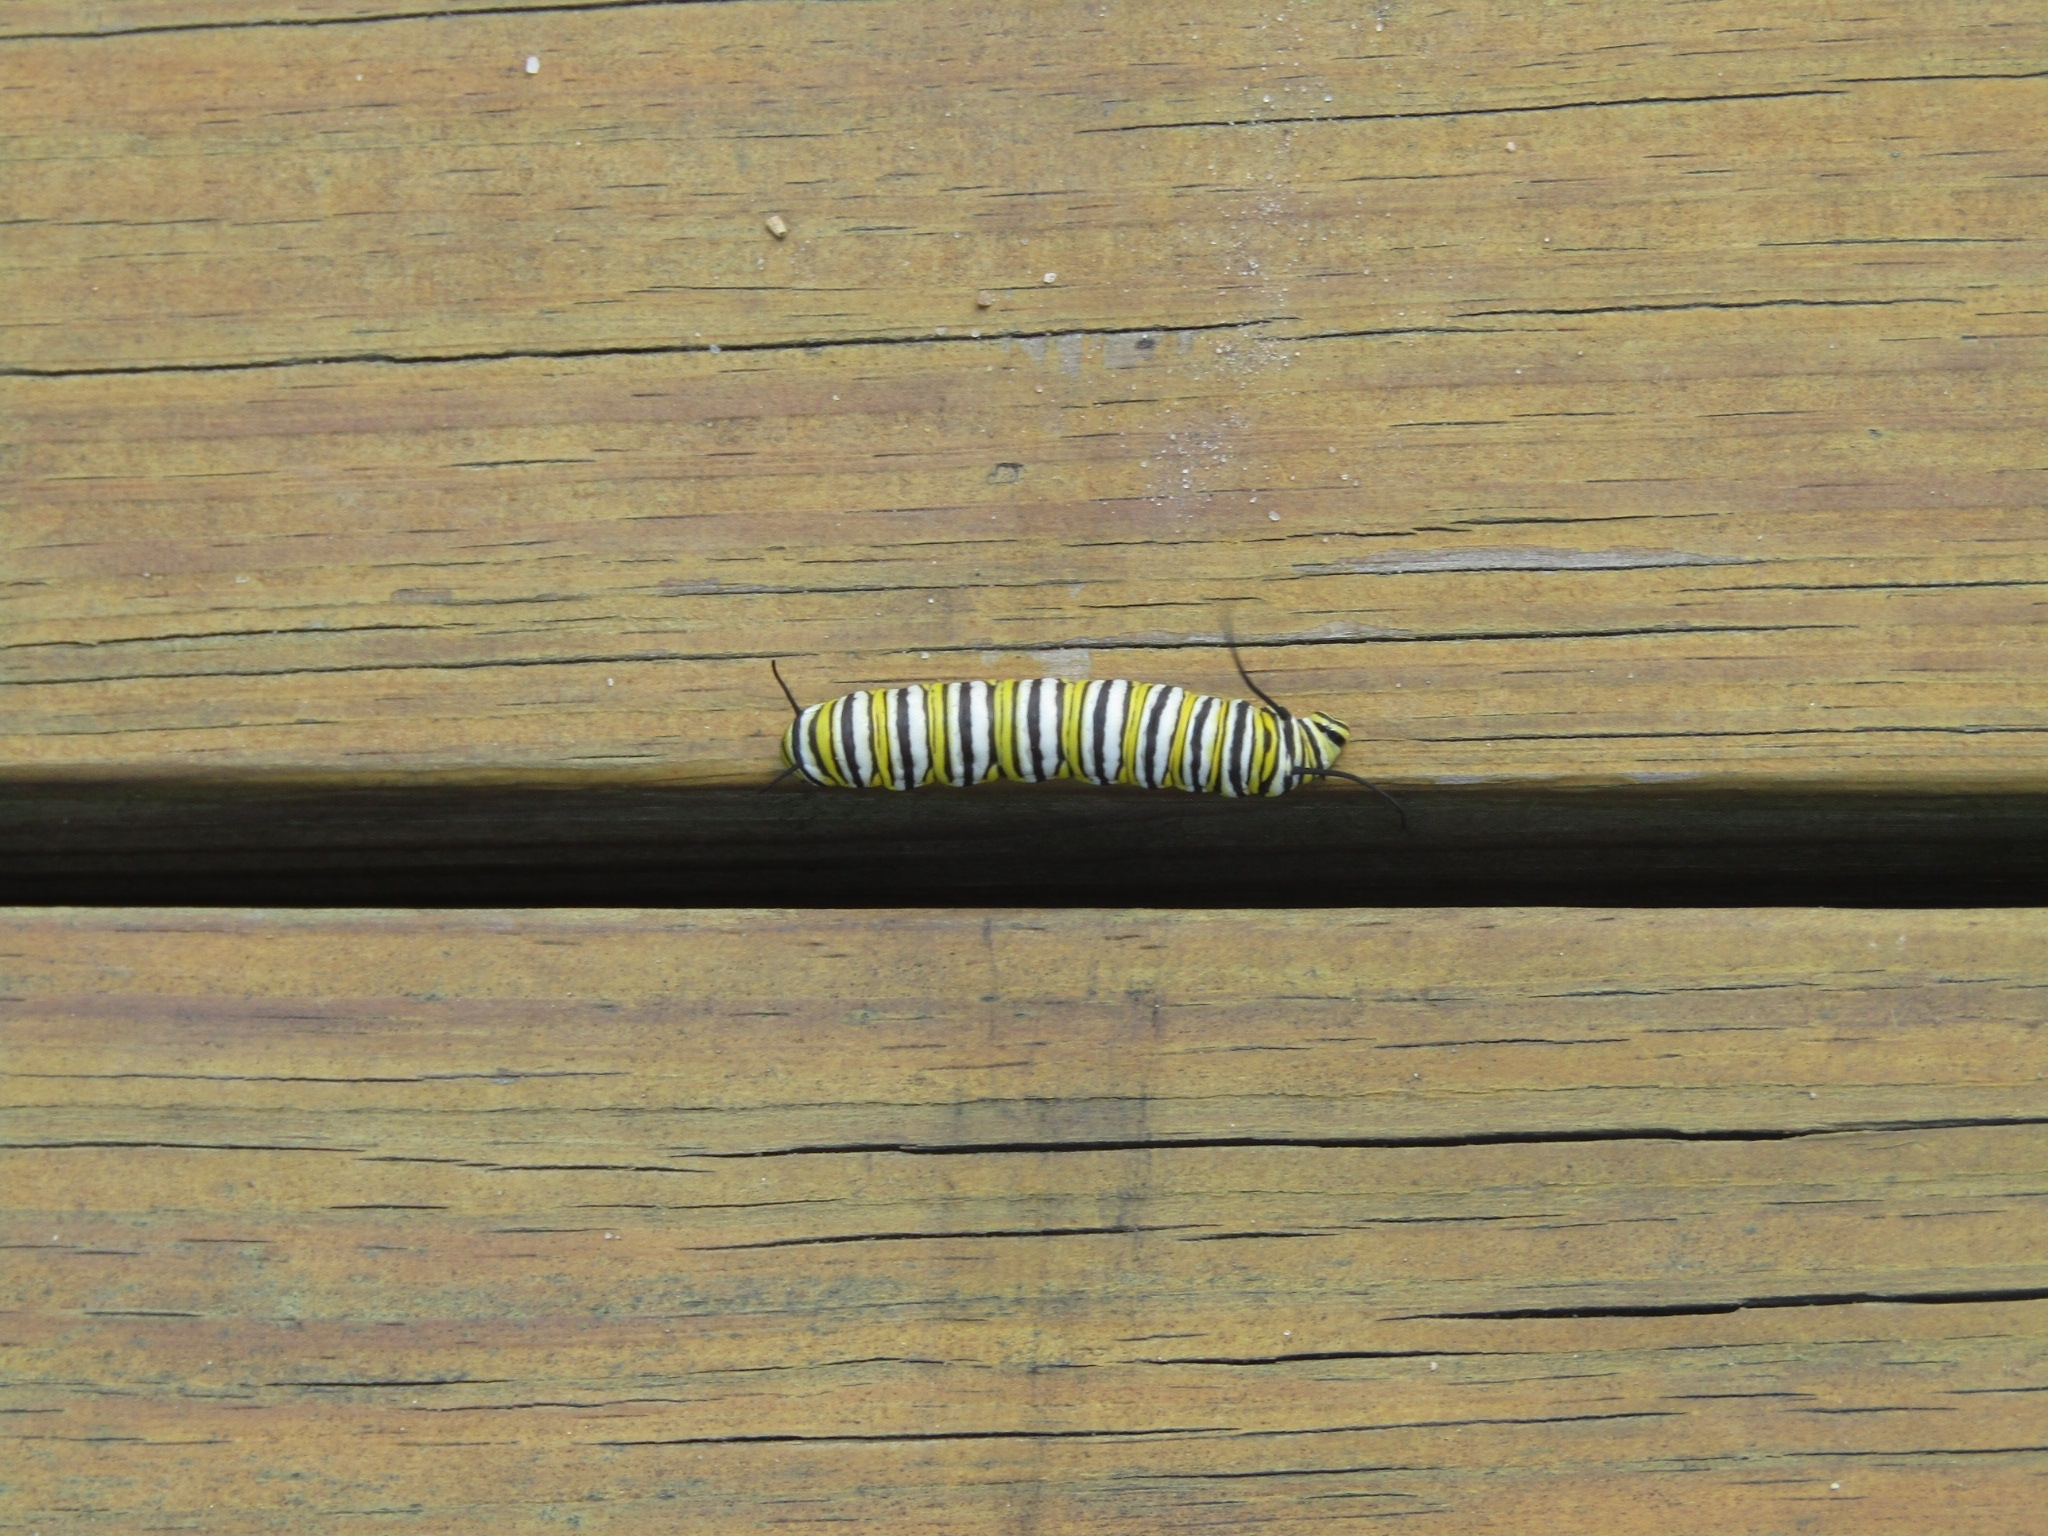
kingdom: Animalia
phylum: Arthropoda
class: Insecta
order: Lepidoptera
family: Nymphalidae
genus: Danaus
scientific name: Danaus plexippus
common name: Monarch
